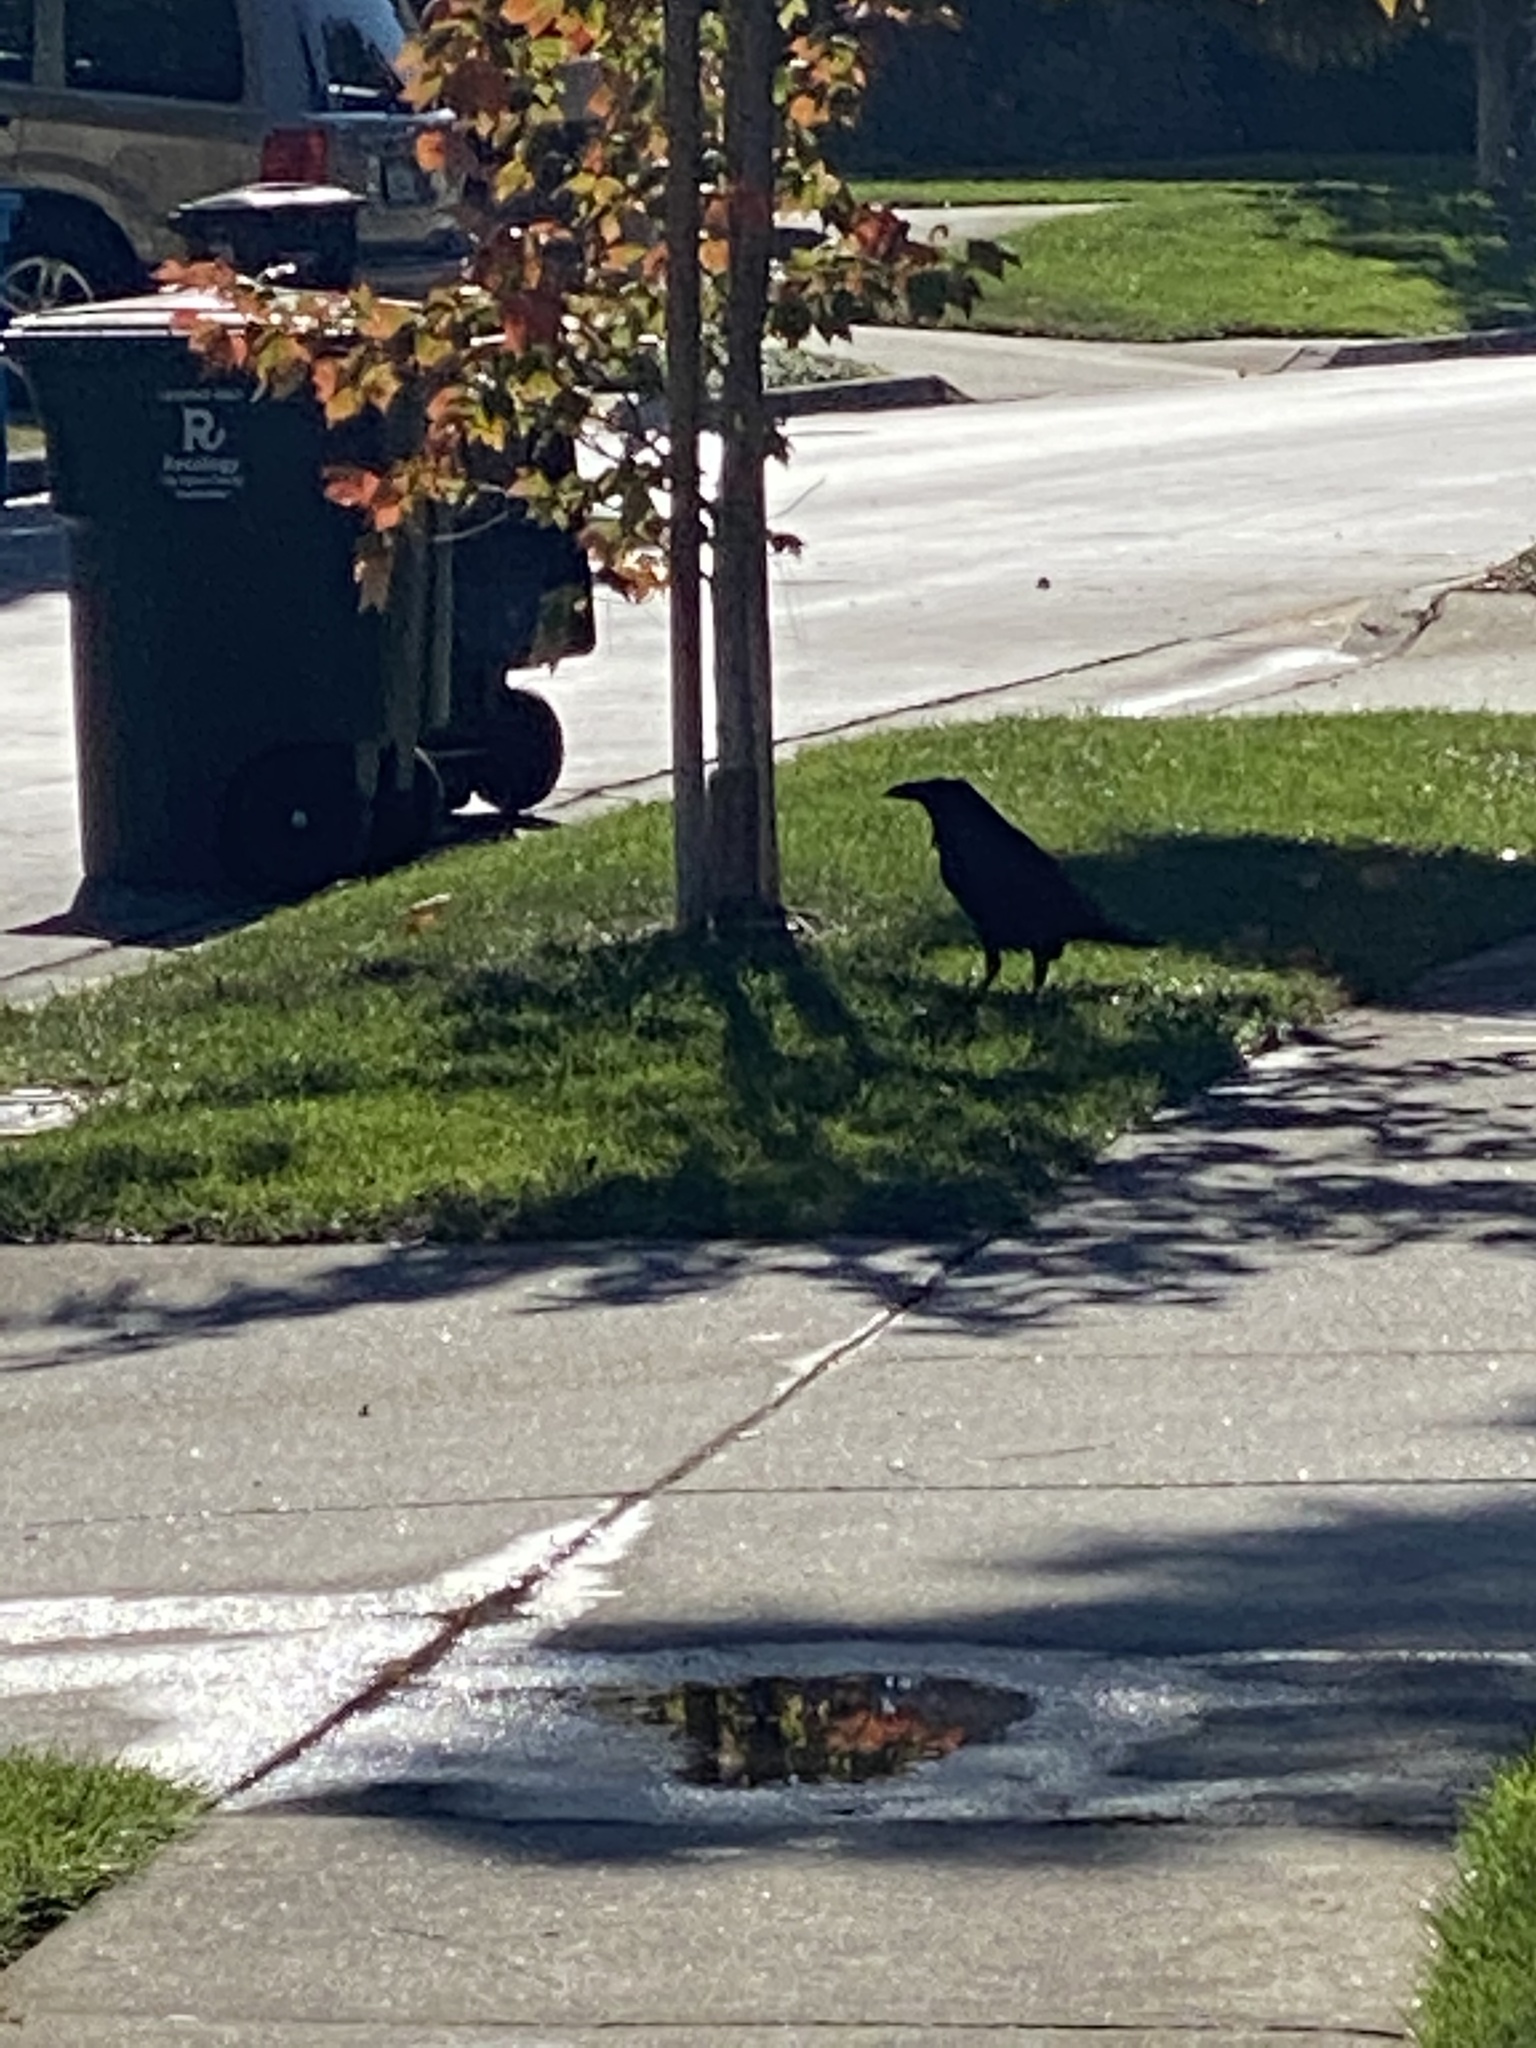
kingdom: Animalia
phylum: Chordata
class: Aves
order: Passeriformes
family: Corvidae
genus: Corvus
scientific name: Corvus corax
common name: Common raven
